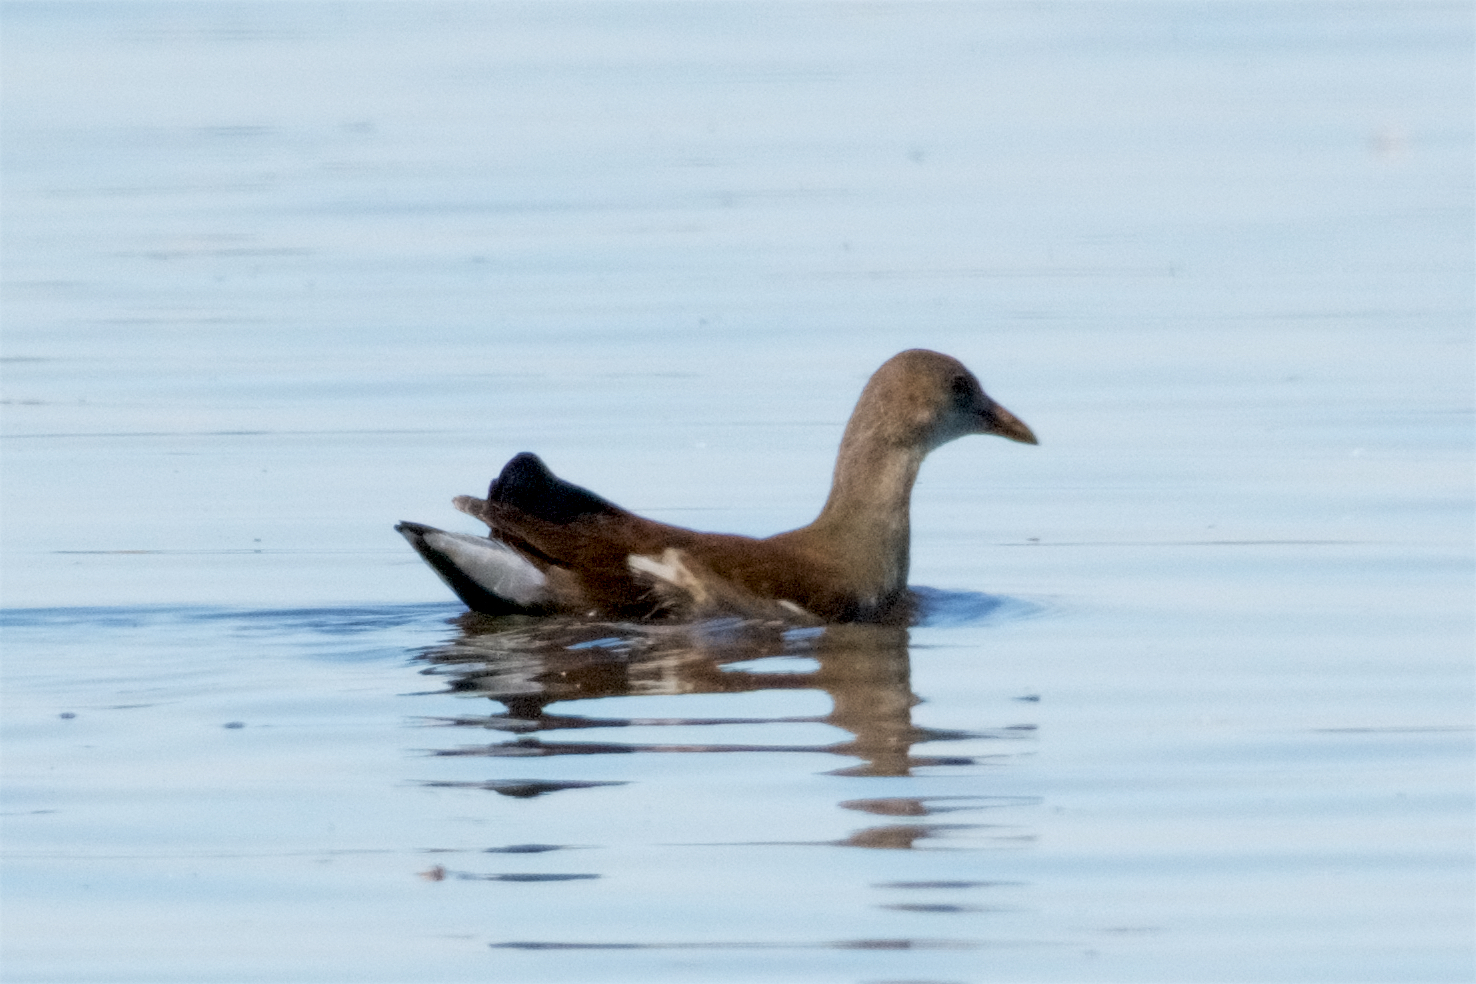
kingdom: Animalia
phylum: Chordata
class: Aves
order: Gruiformes
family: Rallidae
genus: Gallinula
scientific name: Gallinula chloropus
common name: Common moorhen
